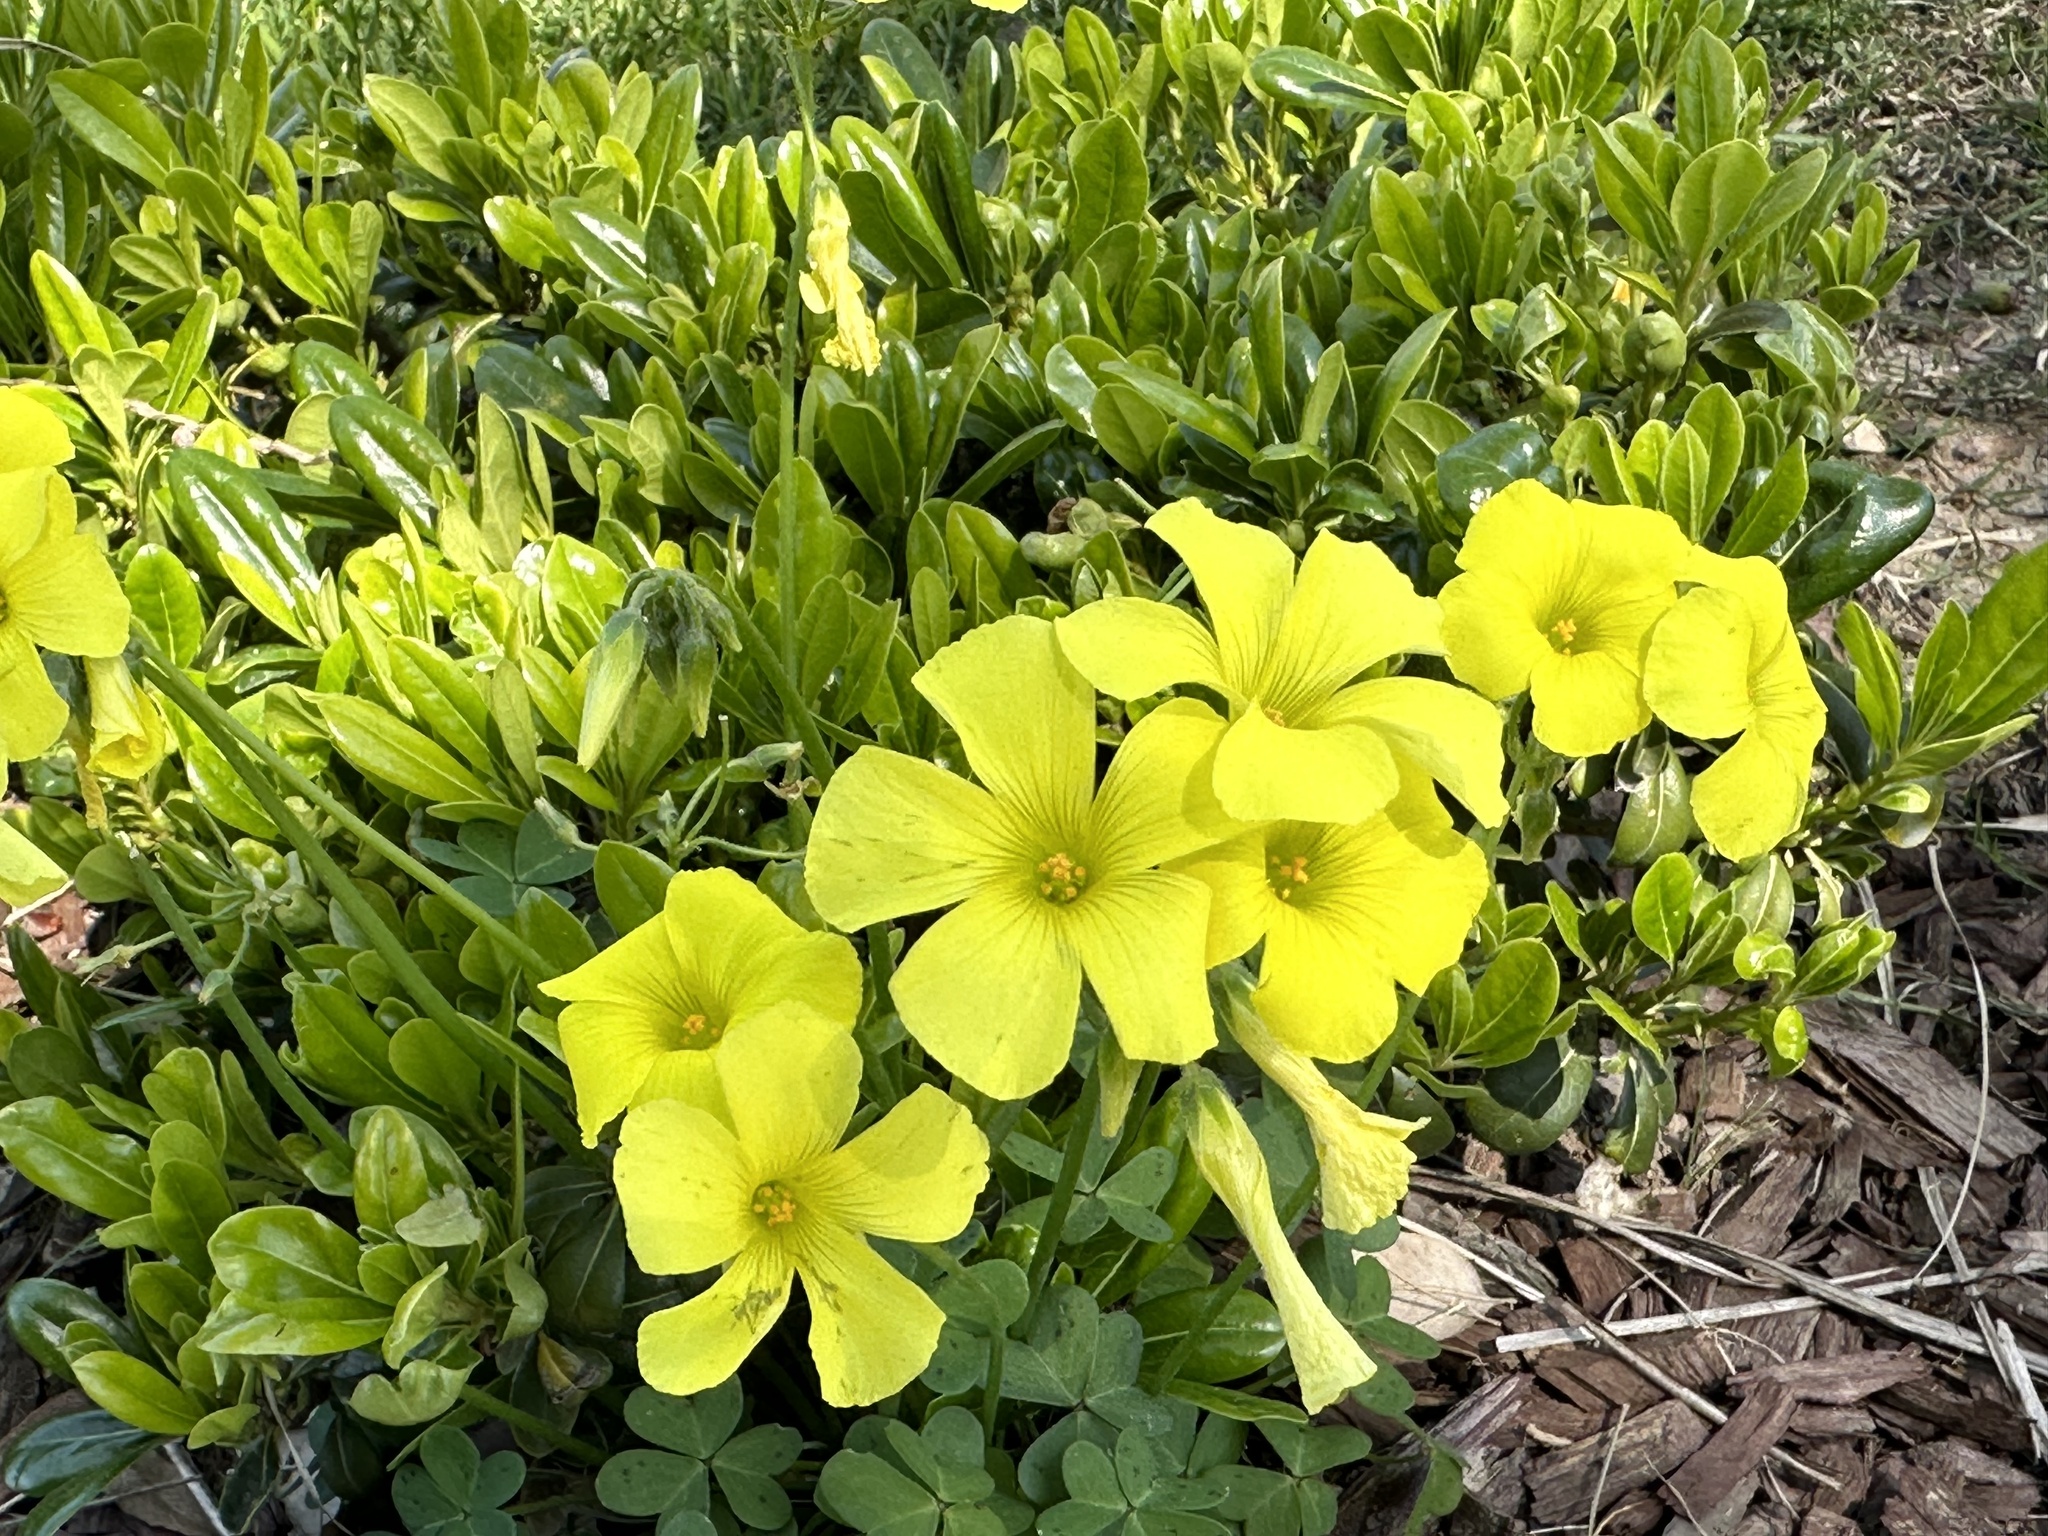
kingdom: Plantae
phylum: Tracheophyta
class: Magnoliopsida
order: Oxalidales
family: Oxalidaceae
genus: Oxalis
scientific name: Oxalis pes-caprae
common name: Bermuda-buttercup
